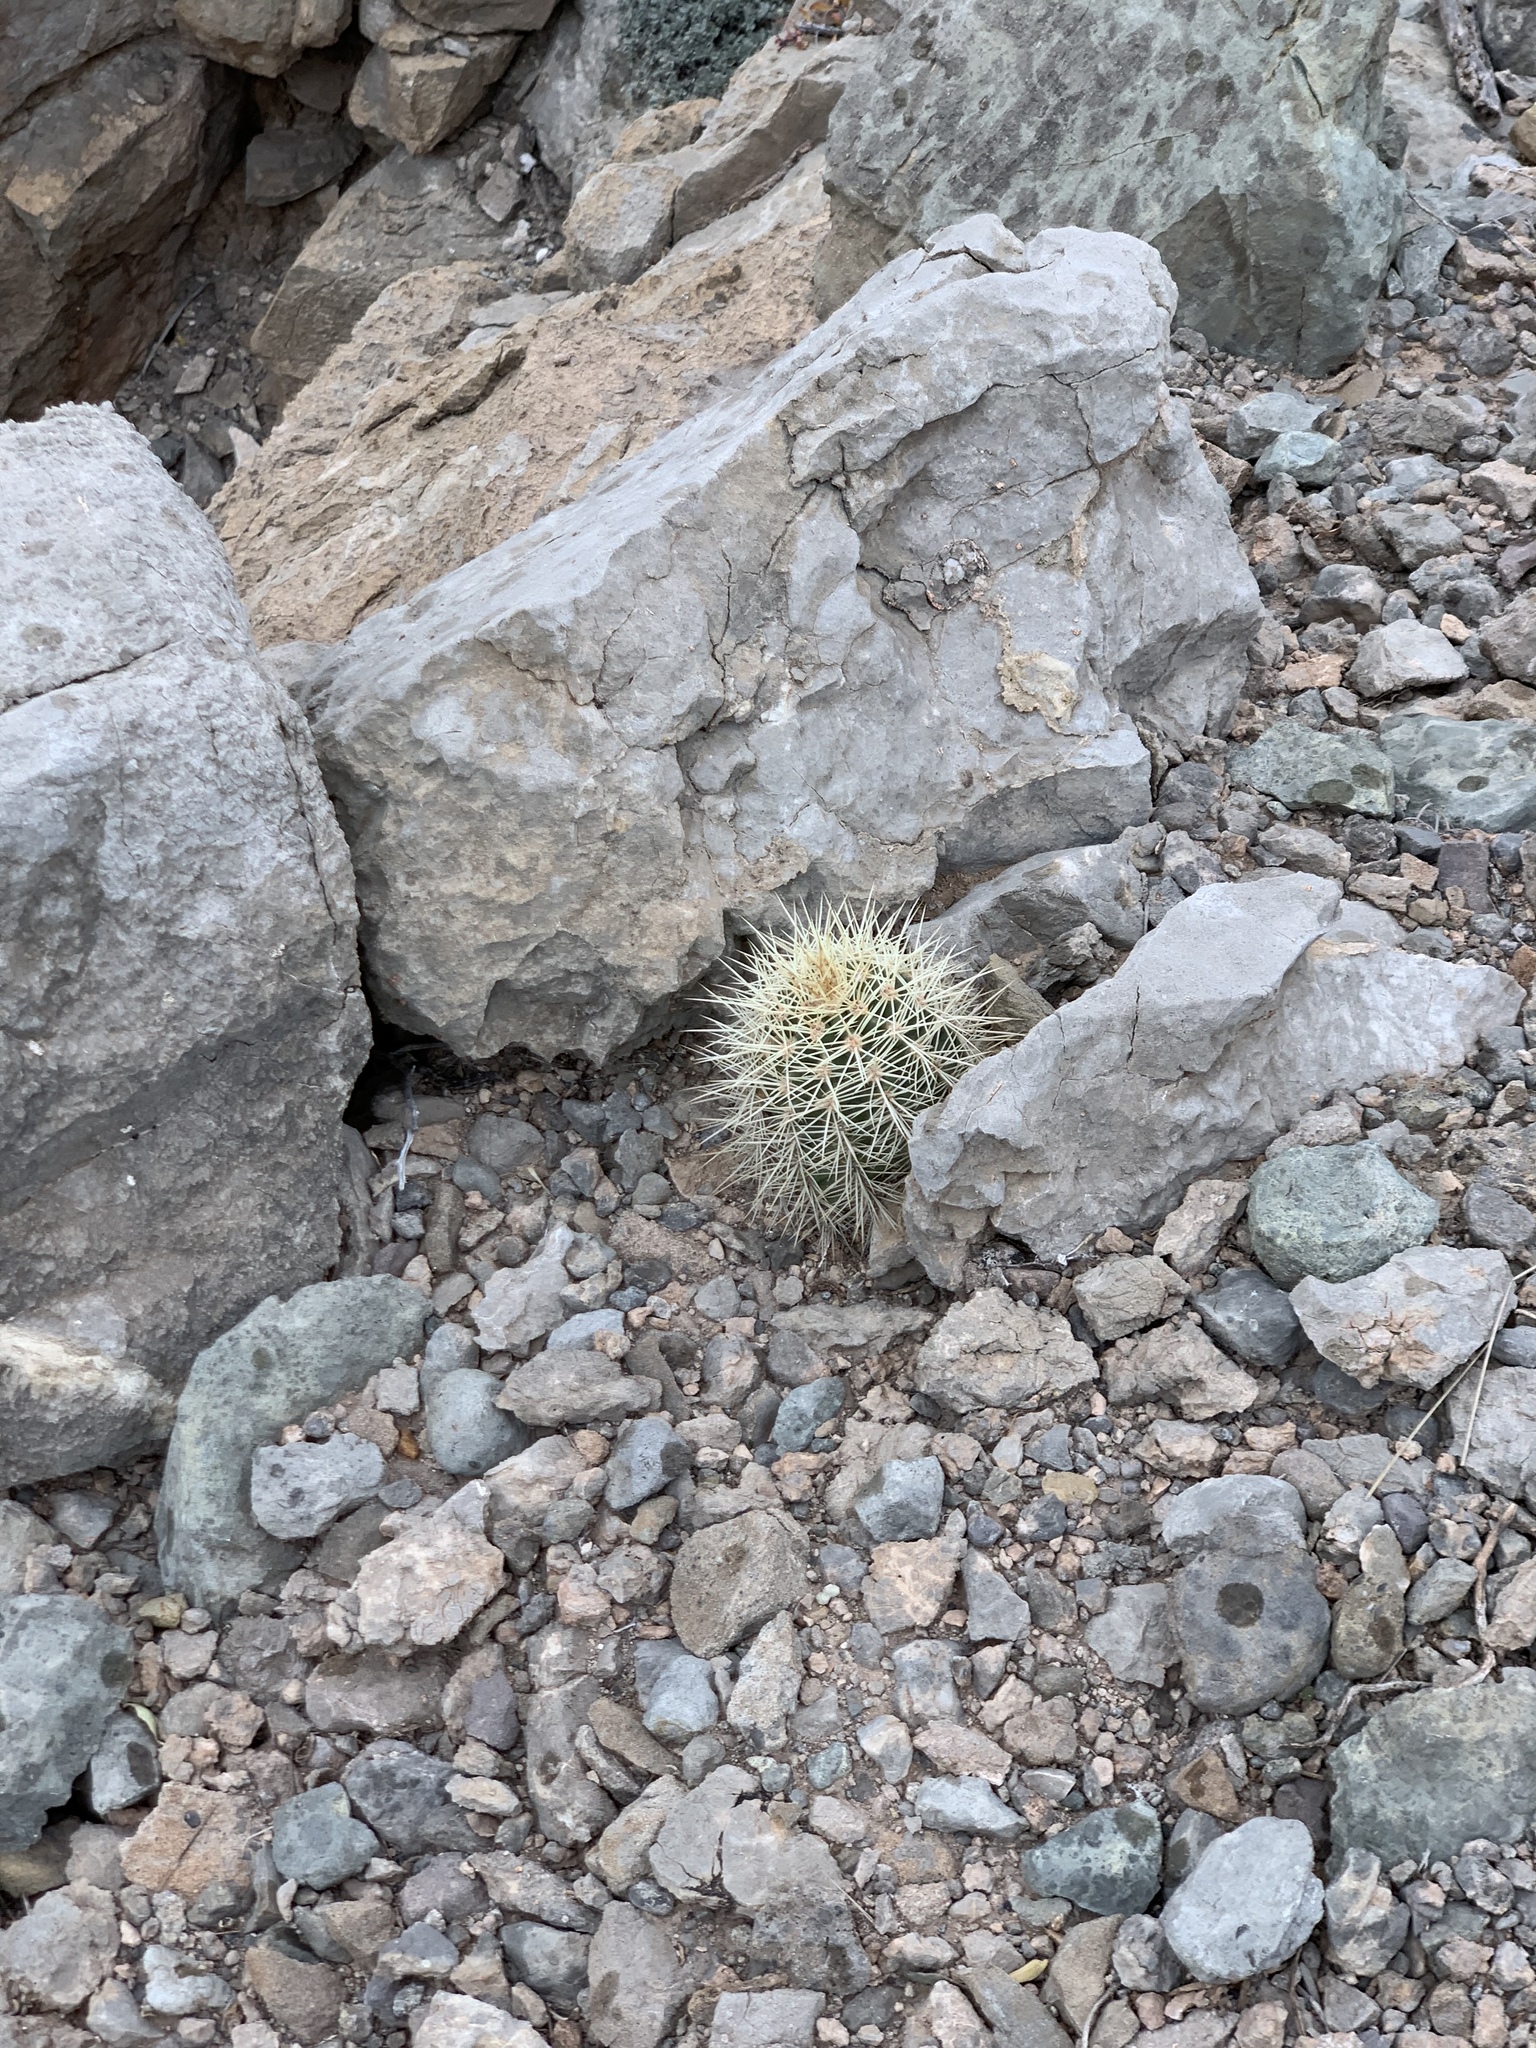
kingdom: Plantae
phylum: Tracheophyta
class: Magnoliopsida
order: Caryophyllales
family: Cactaceae
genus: Echinocereus
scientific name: Echinocereus coccineus
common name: Scarlet hedgehog cactus
